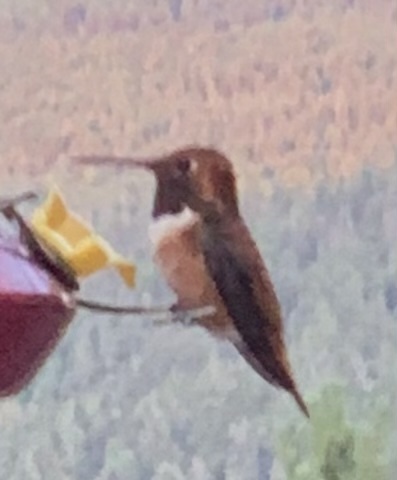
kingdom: Animalia
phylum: Chordata
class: Aves
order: Apodiformes
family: Trochilidae
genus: Selasphorus
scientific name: Selasphorus rufus
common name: Rufous hummingbird
